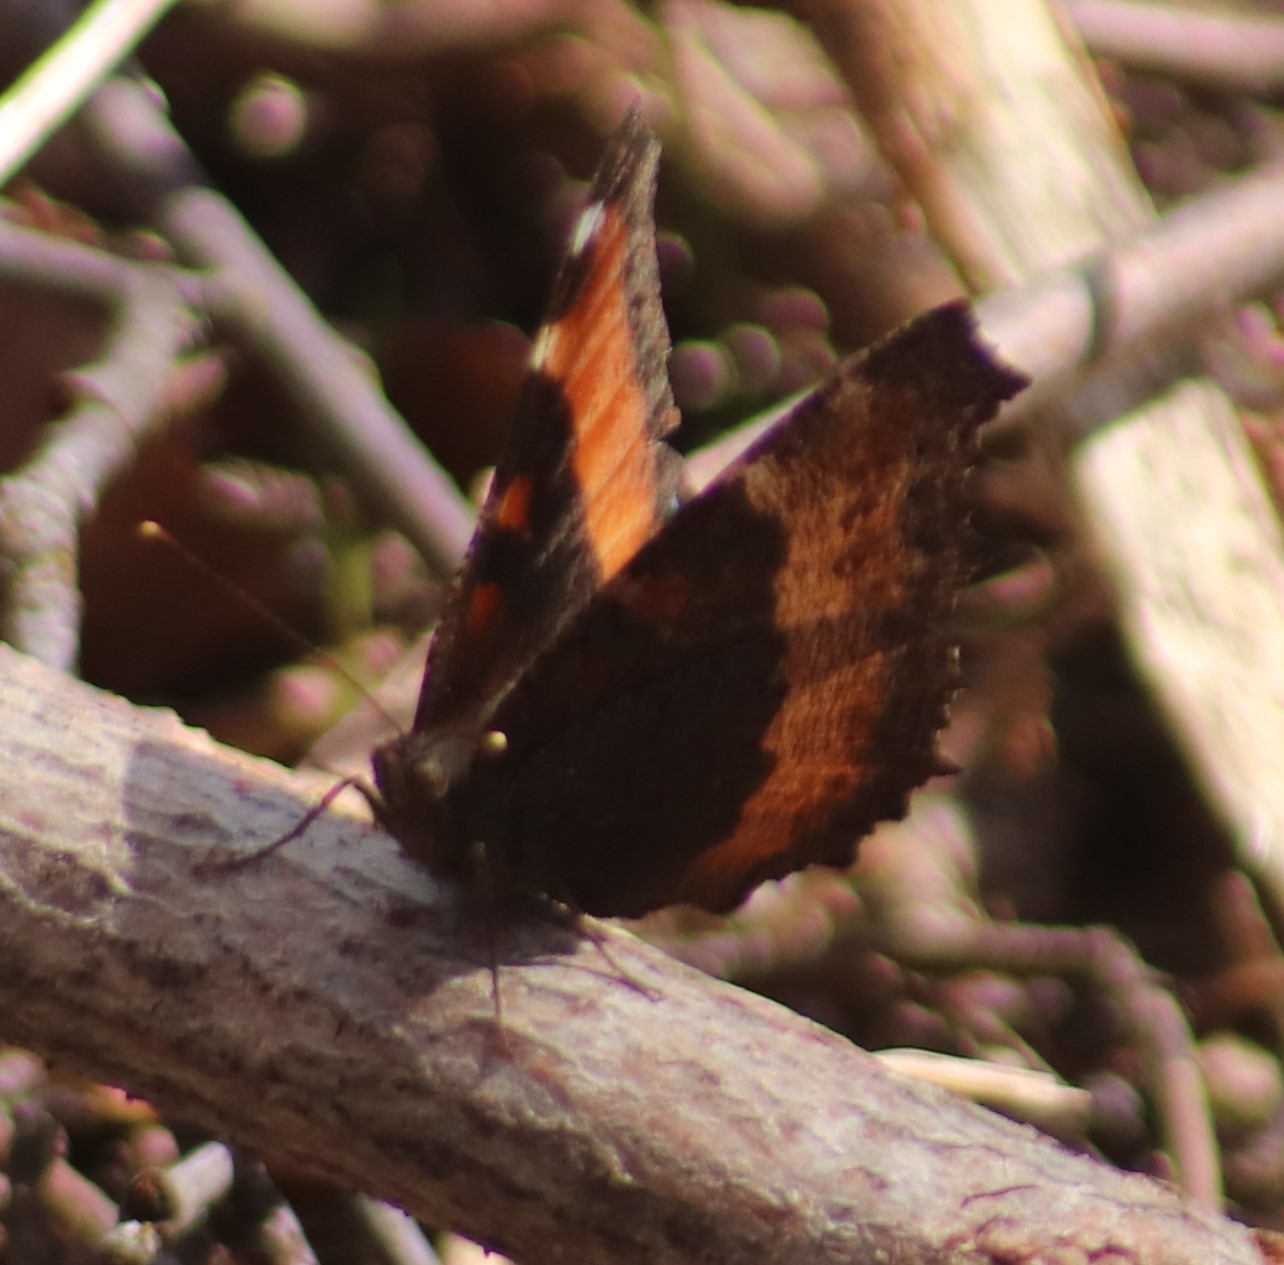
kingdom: Animalia
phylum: Arthropoda
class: Insecta
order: Lepidoptera
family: Nymphalidae
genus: Aglais
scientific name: Aglais milberti
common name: Milbert's tortoiseshell
